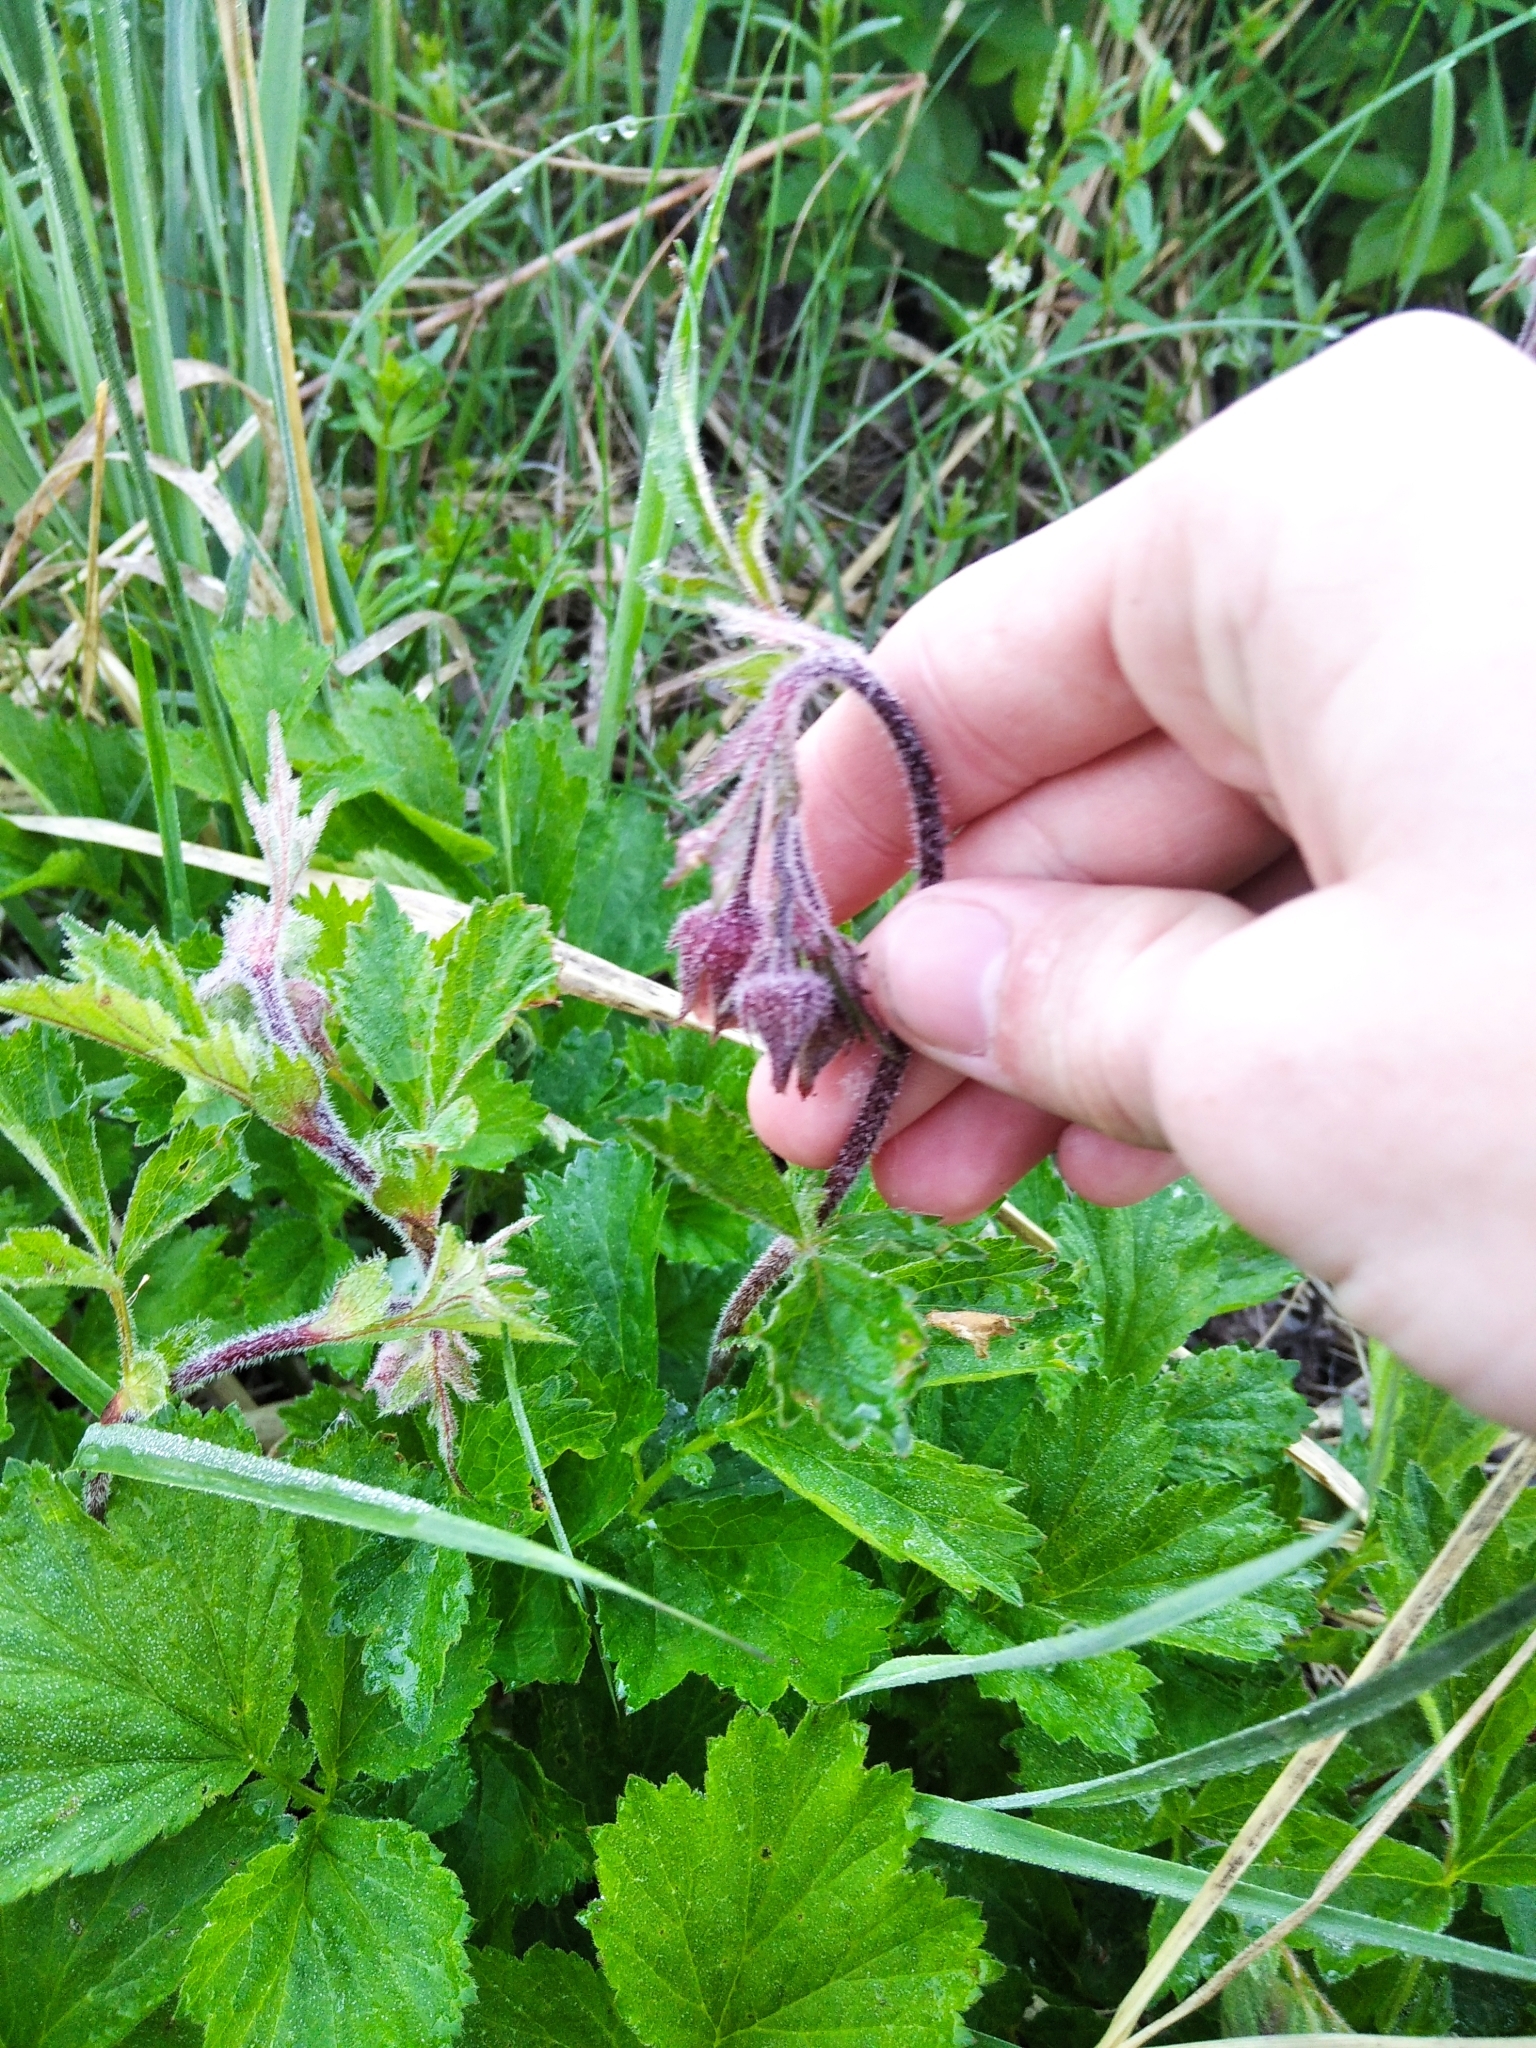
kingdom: Plantae
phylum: Tracheophyta
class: Magnoliopsida
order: Rosales
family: Rosaceae
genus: Geum
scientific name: Geum rivale
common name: Water avens
